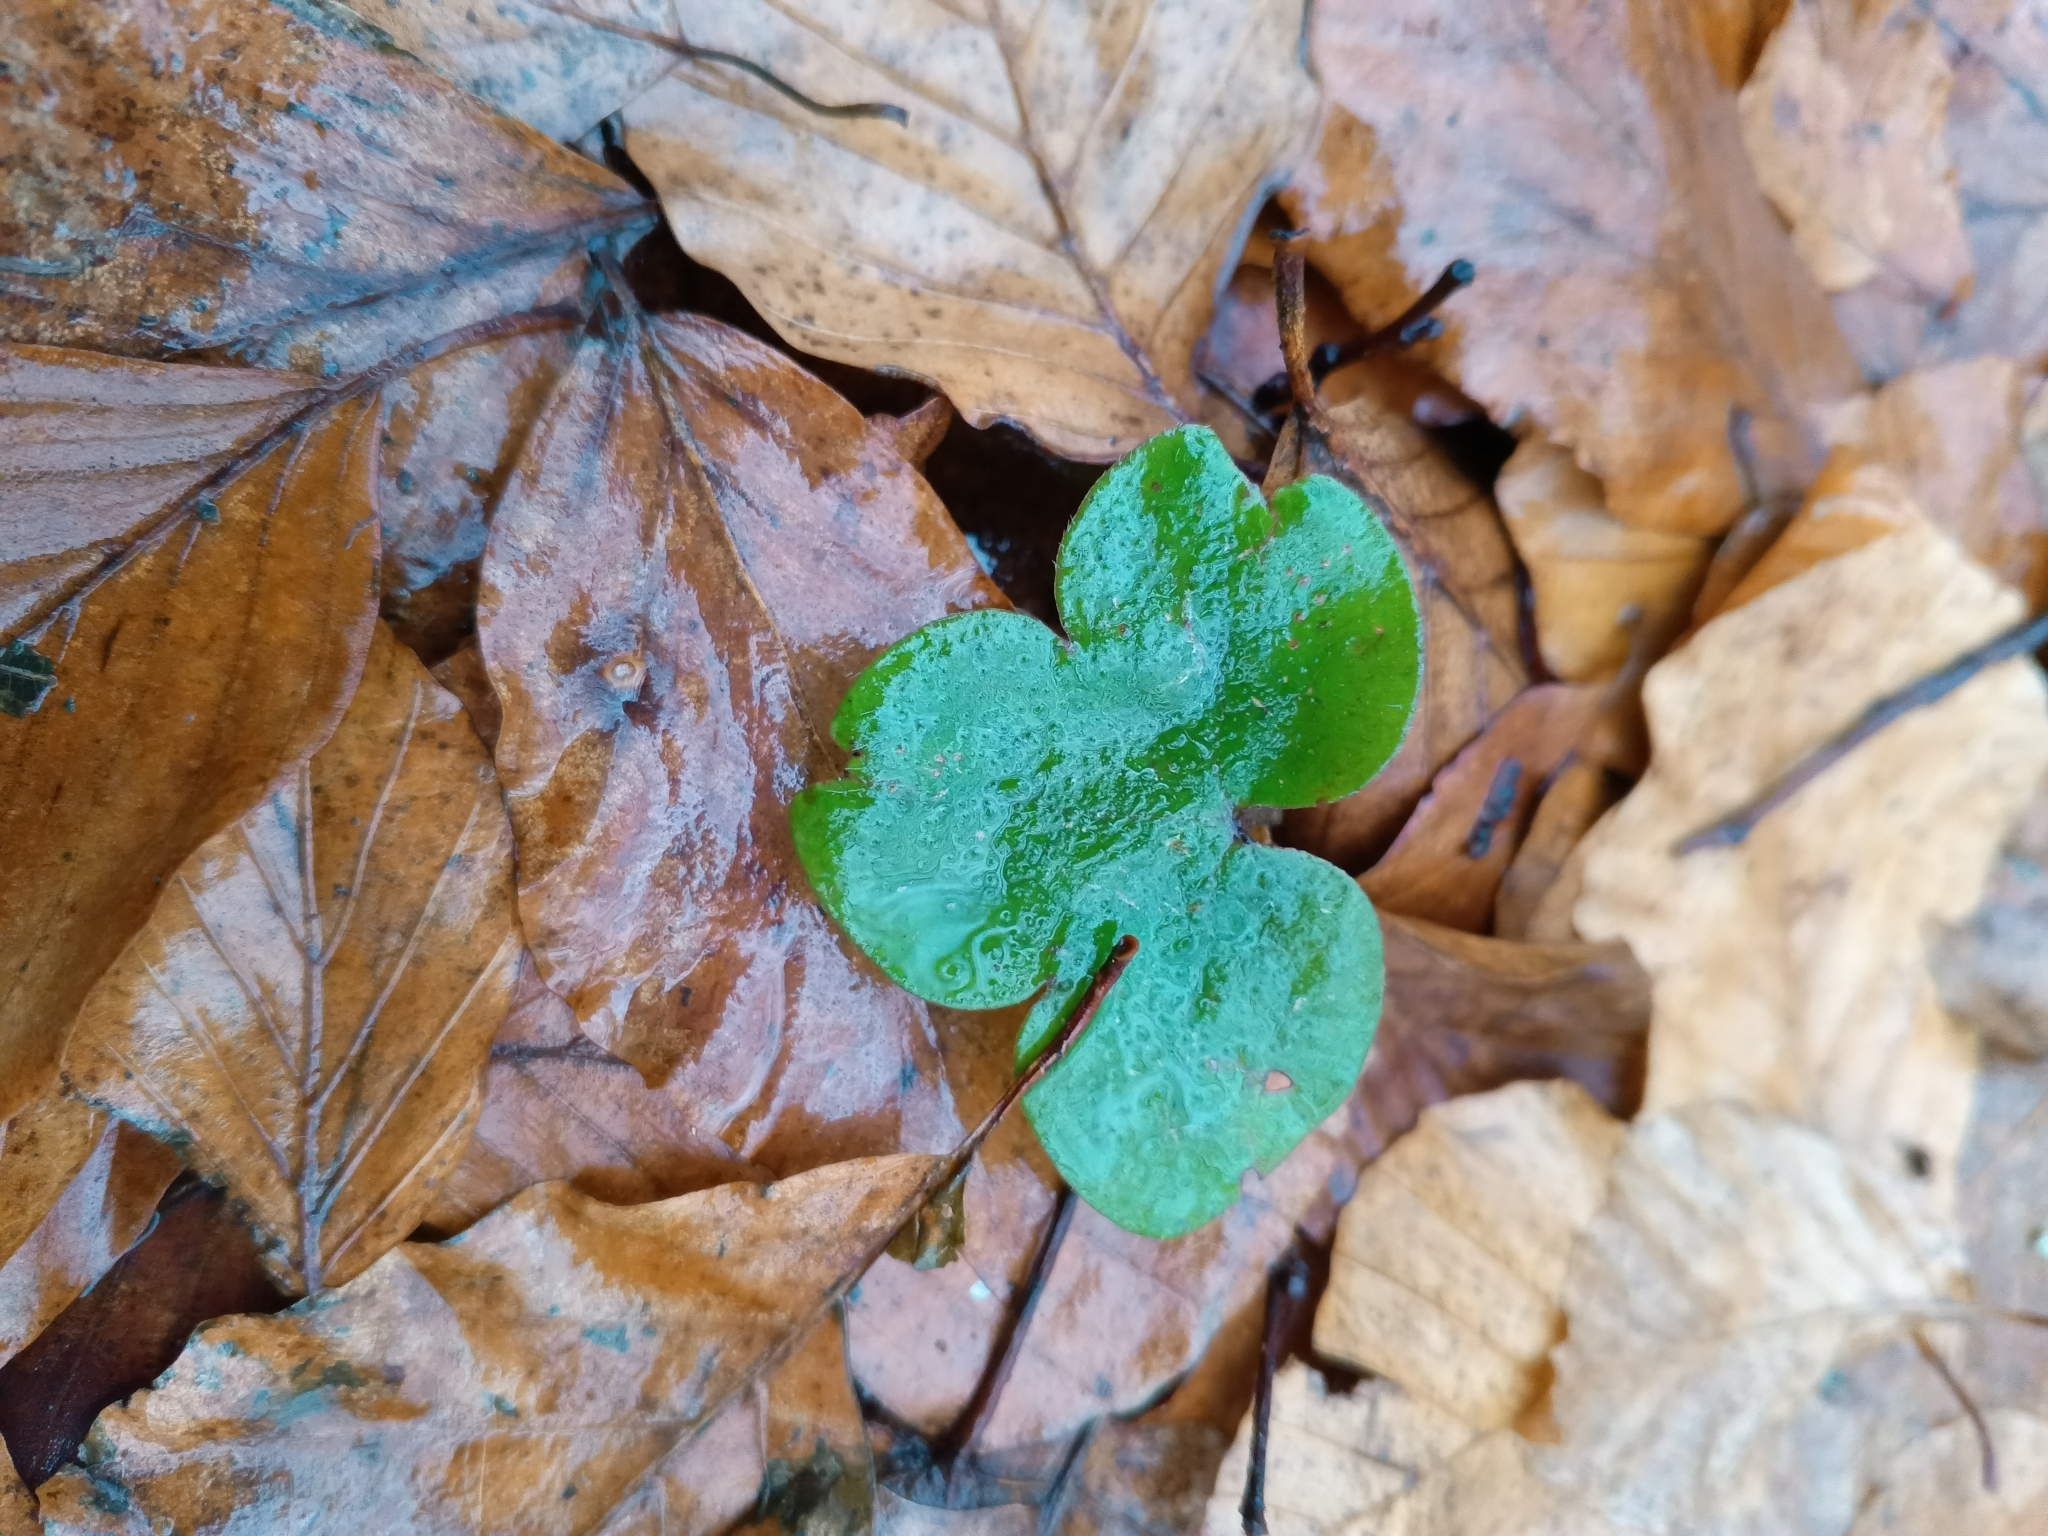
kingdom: Plantae
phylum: Tracheophyta
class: Magnoliopsida
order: Ranunculales
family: Ranunculaceae
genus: Hepatica
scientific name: Hepatica nobilis
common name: Liverleaf
